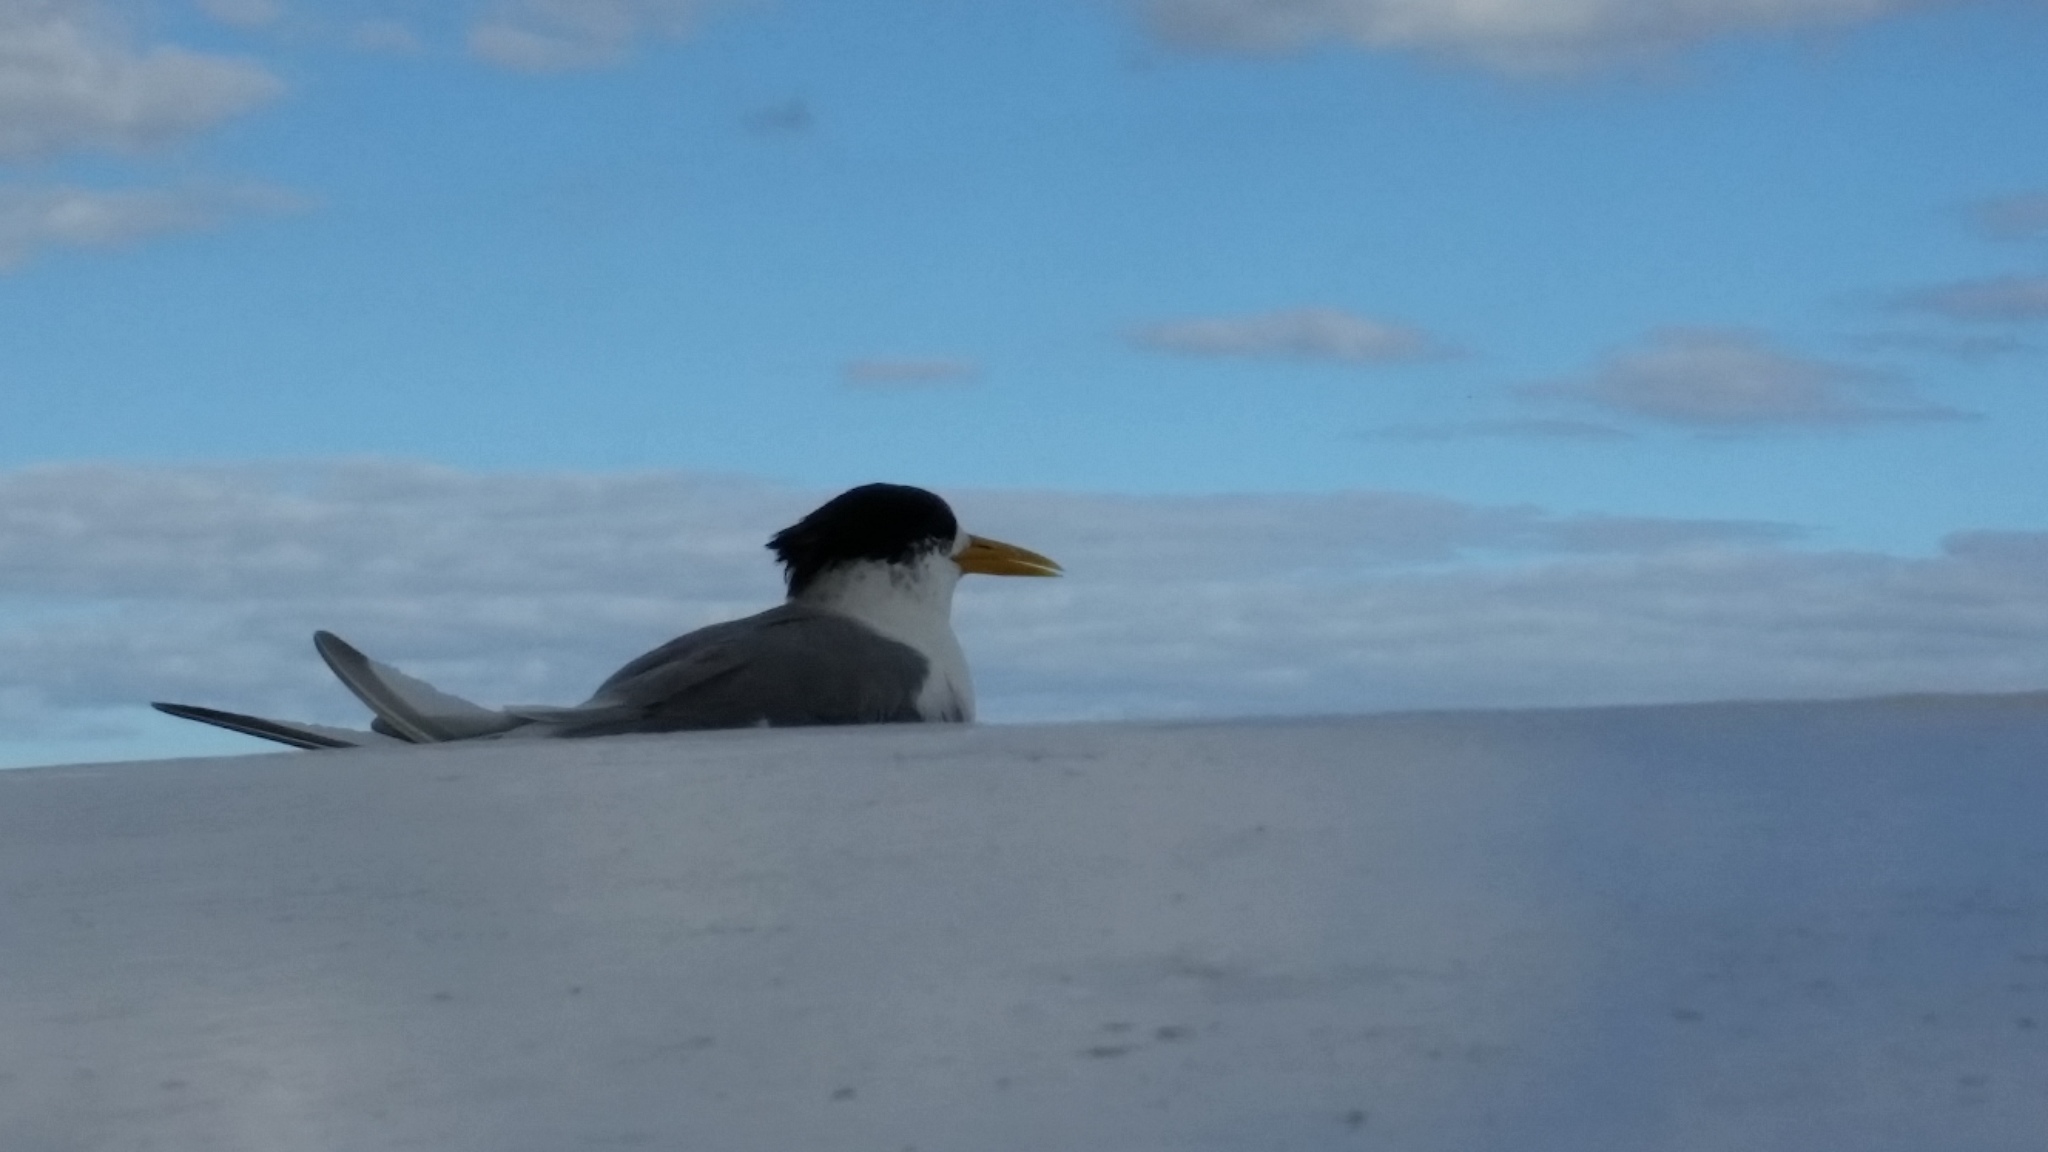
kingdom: Animalia
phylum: Chordata
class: Aves
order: Charadriiformes
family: Laridae
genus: Thalasseus
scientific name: Thalasseus bergii
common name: Greater crested tern
